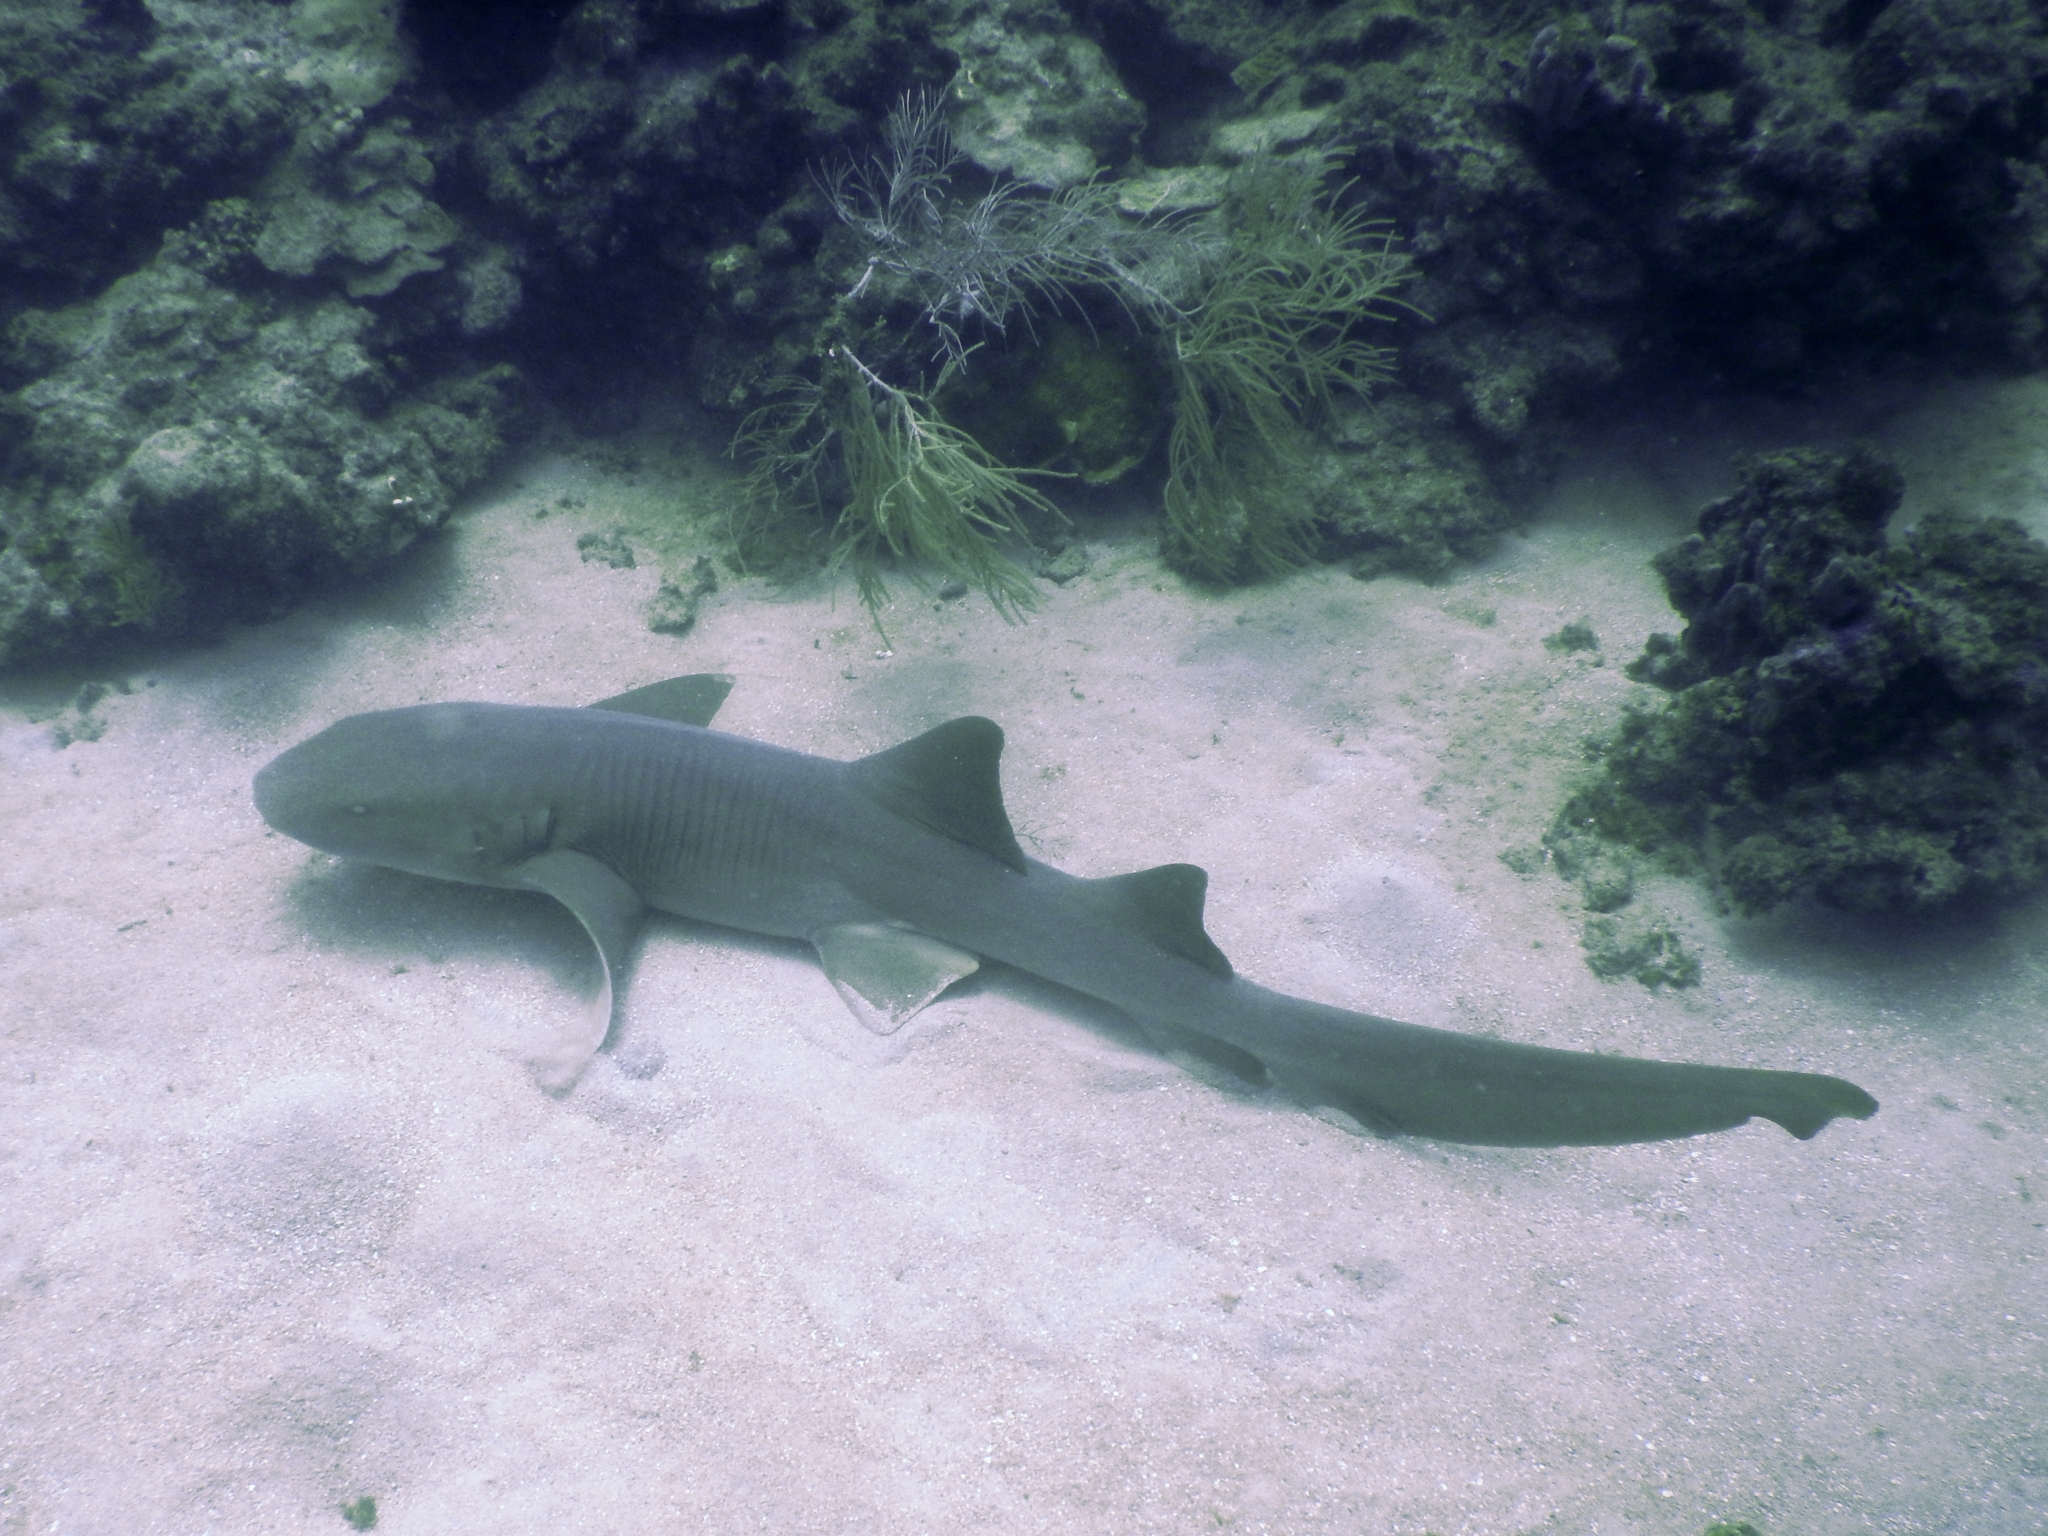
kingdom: Animalia
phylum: Chordata
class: Elasmobranchii
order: Orectolobiformes
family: Ginglymostomatidae
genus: Ginglymostoma
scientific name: Ginglymostoma cirratum
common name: Nurse shark
